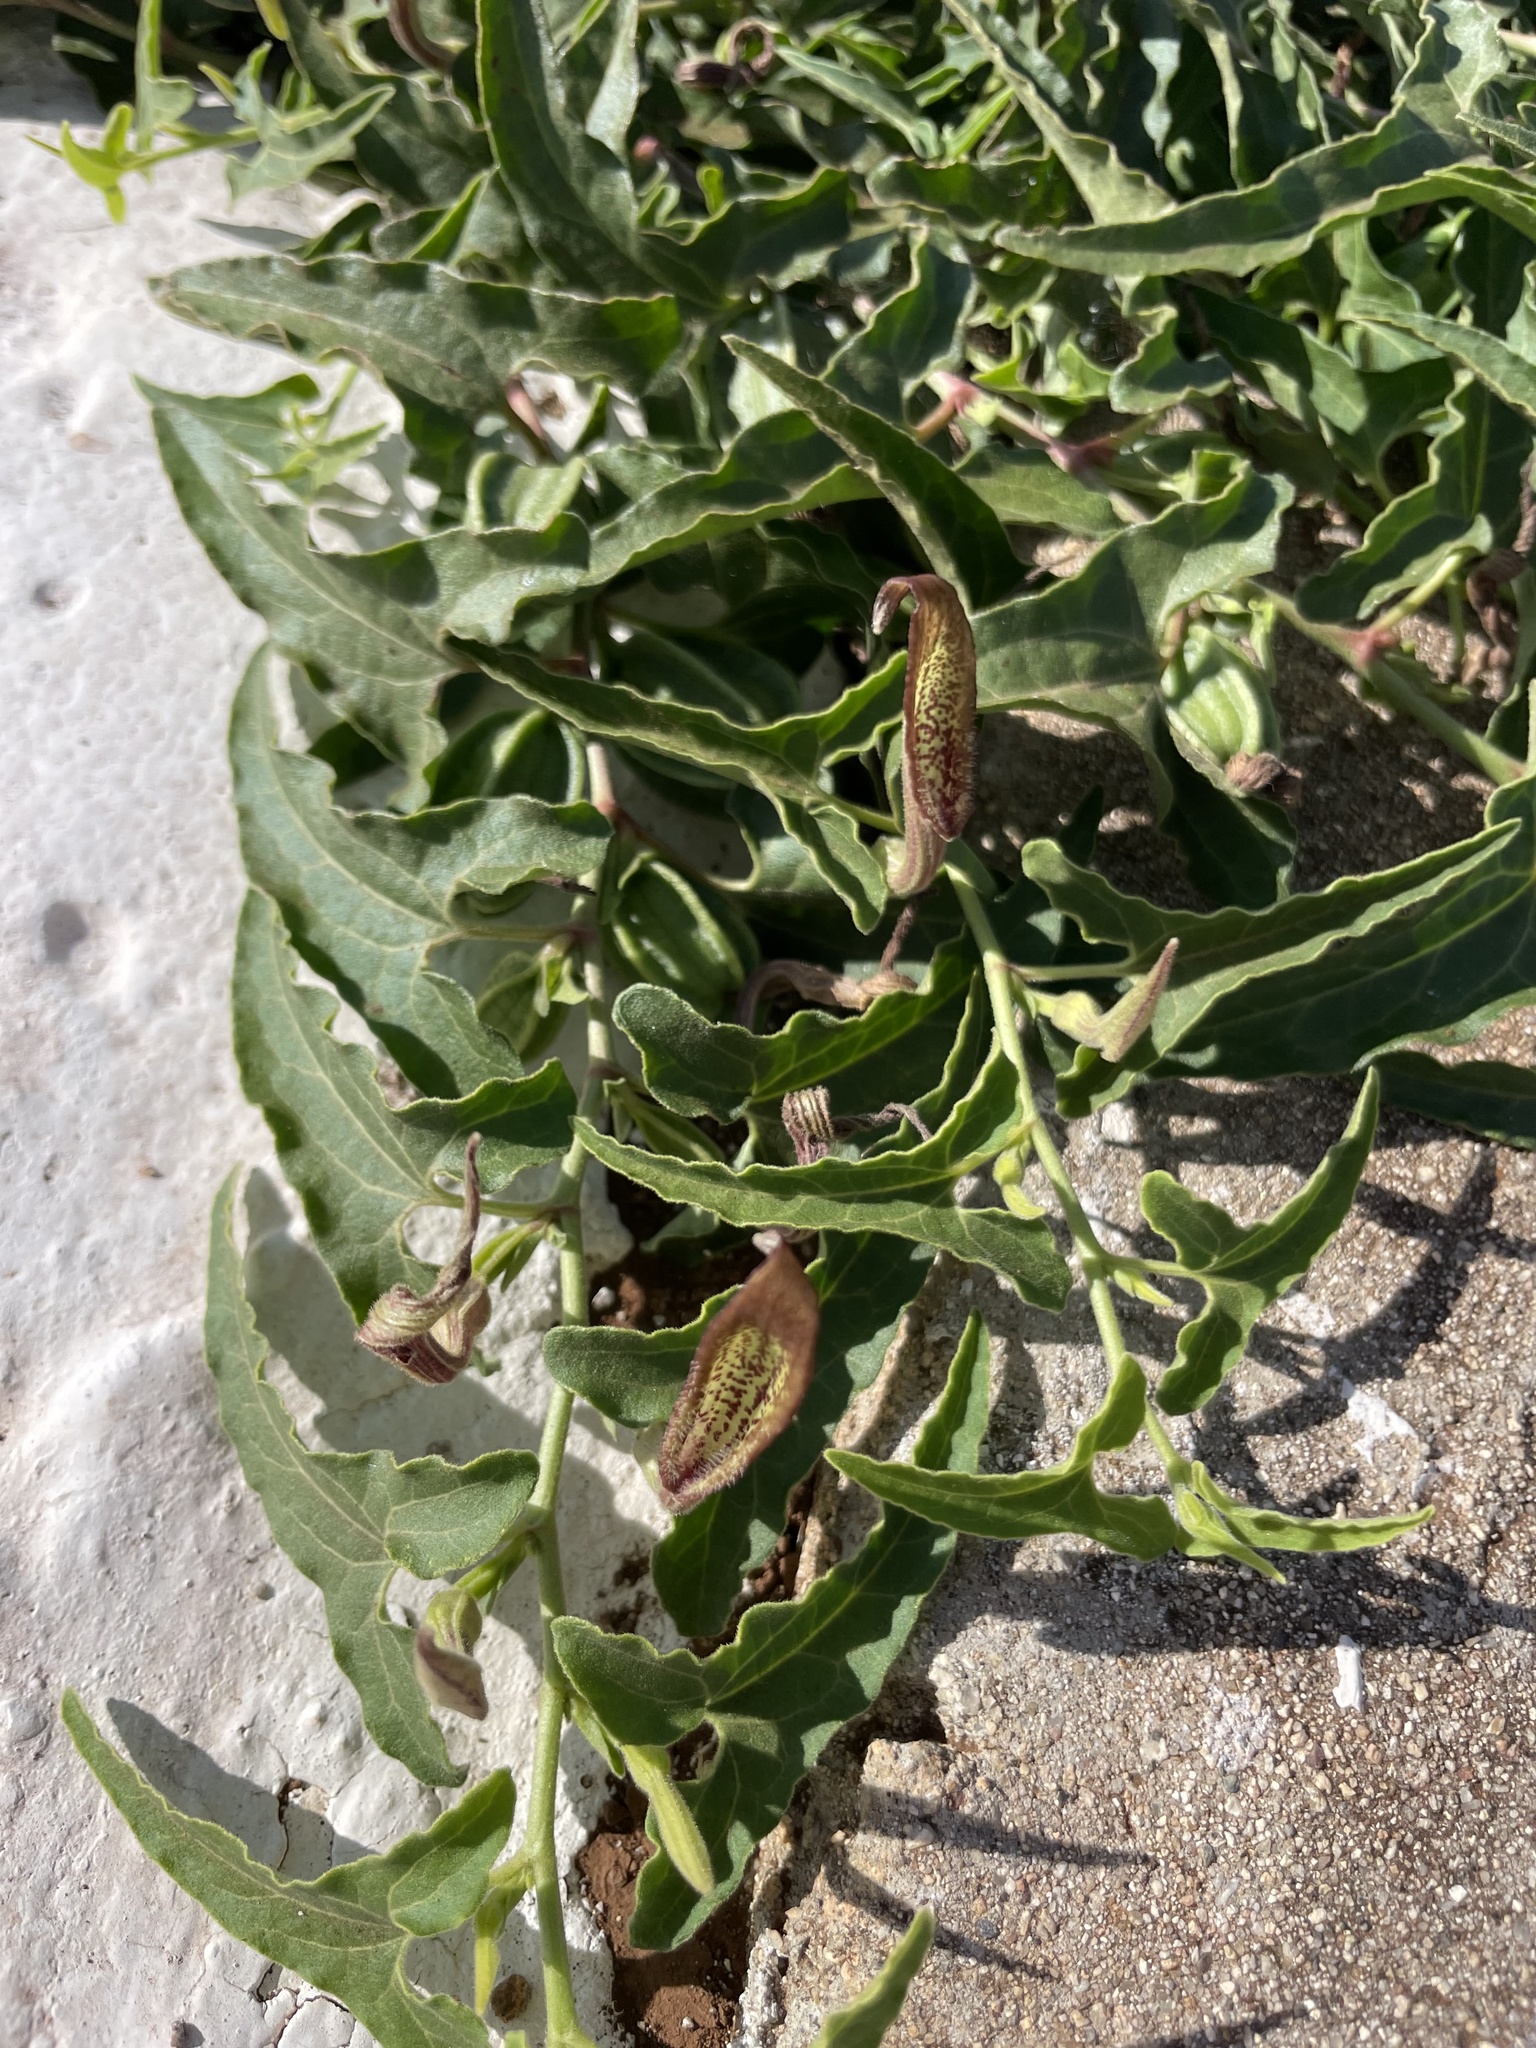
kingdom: Plantae
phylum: Tracheophyta
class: Magnoliopsida
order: Piperales
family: Aristolochiaceae
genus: Aristolochia
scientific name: Aristolochia watsonii
